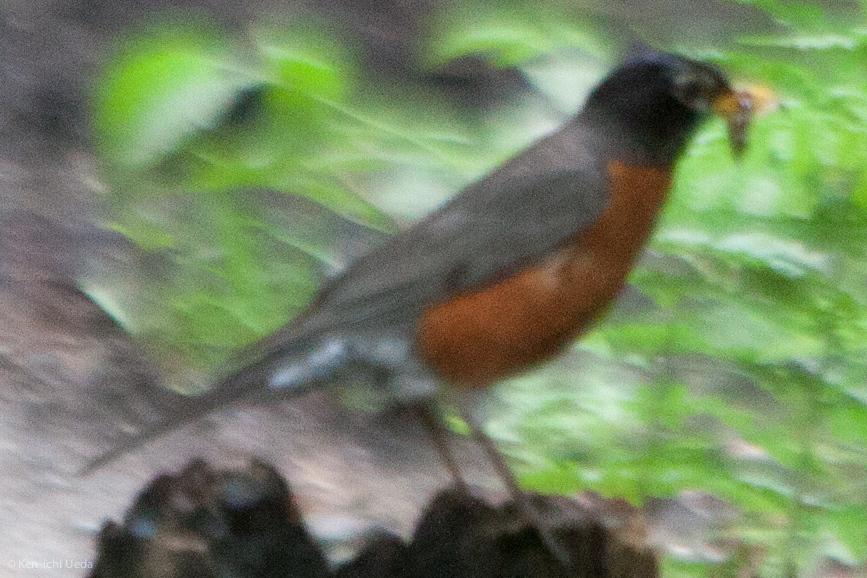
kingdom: Animalia
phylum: Chordata
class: Aves
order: Passeriformes
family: Turdidae
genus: Turdus
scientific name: Turdus migratorius
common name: American robin
